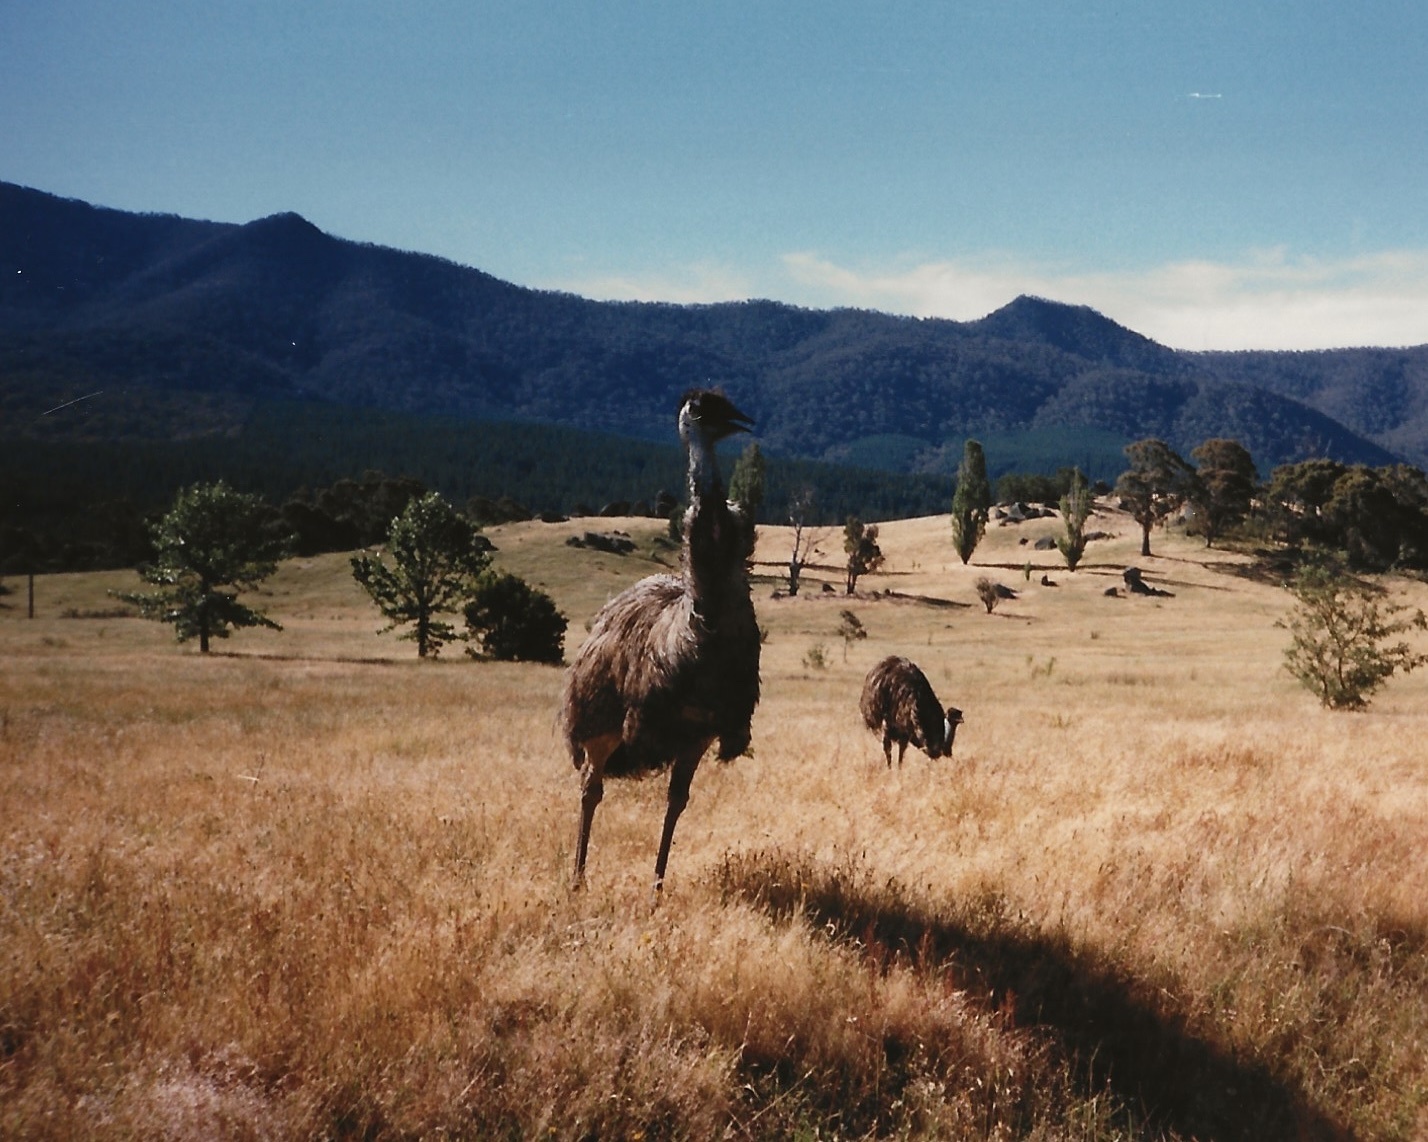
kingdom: Animalia
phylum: Chordata
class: Aves
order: Casuariiformes
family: Dromaiidae
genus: Dromaius
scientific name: Dromaius novaehollandiae
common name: Emu
